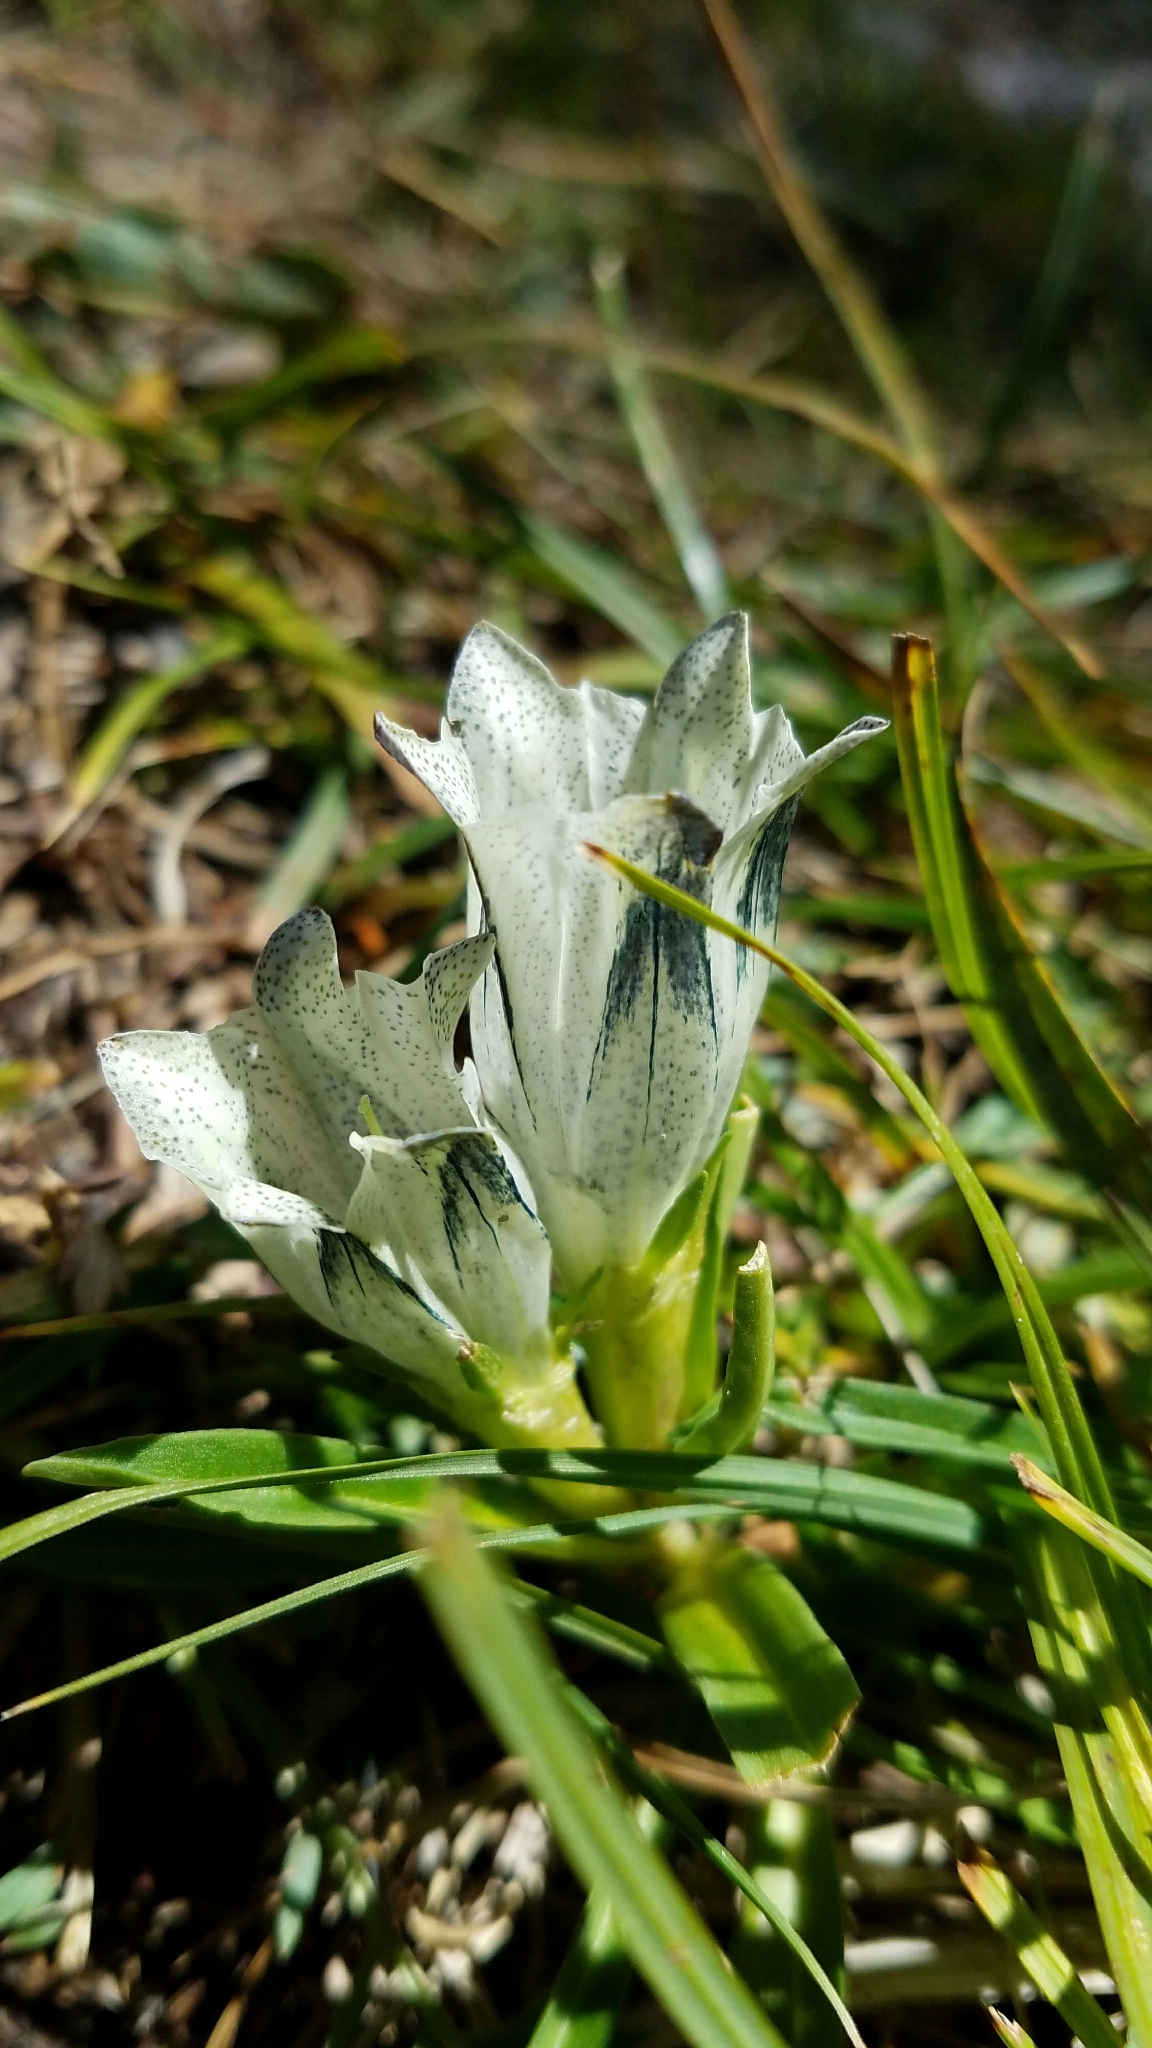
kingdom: Plantae
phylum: Tracheophyta
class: Magnoliopsida
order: Gentianales
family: Gentianaceae
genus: Gentiana
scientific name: Gentiana algida
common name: Arctic gentian
